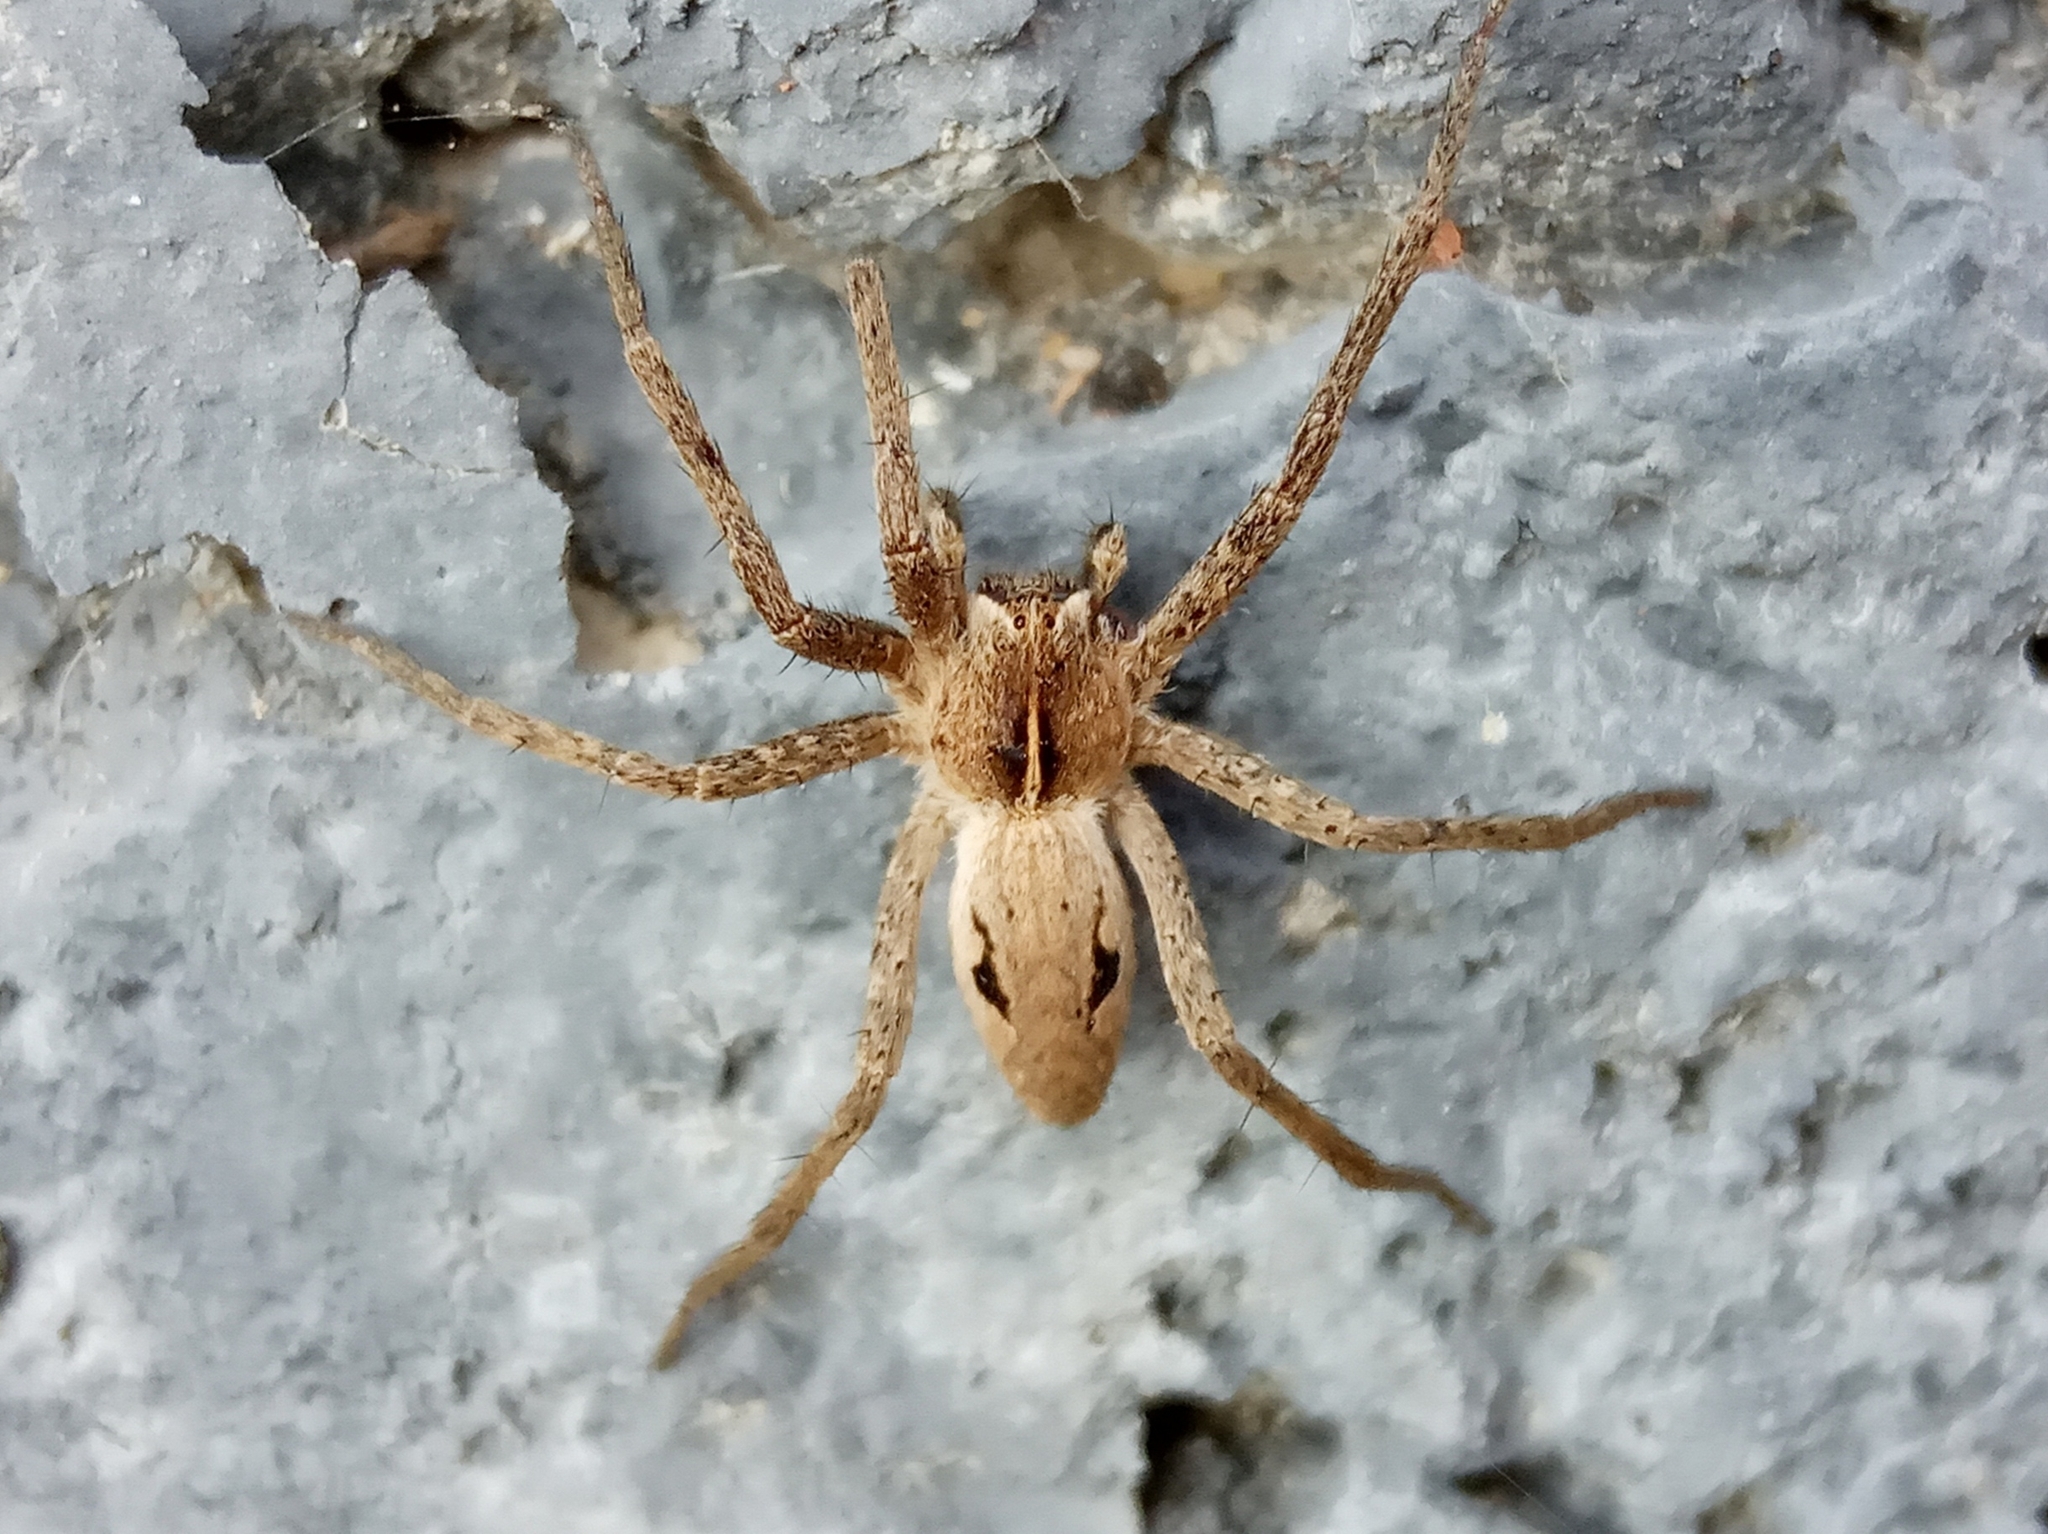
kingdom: Animalia
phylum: Arthropoda
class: Arachnida
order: Araneae
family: Pisauridae
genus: Pisaura
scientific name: Pisaura
